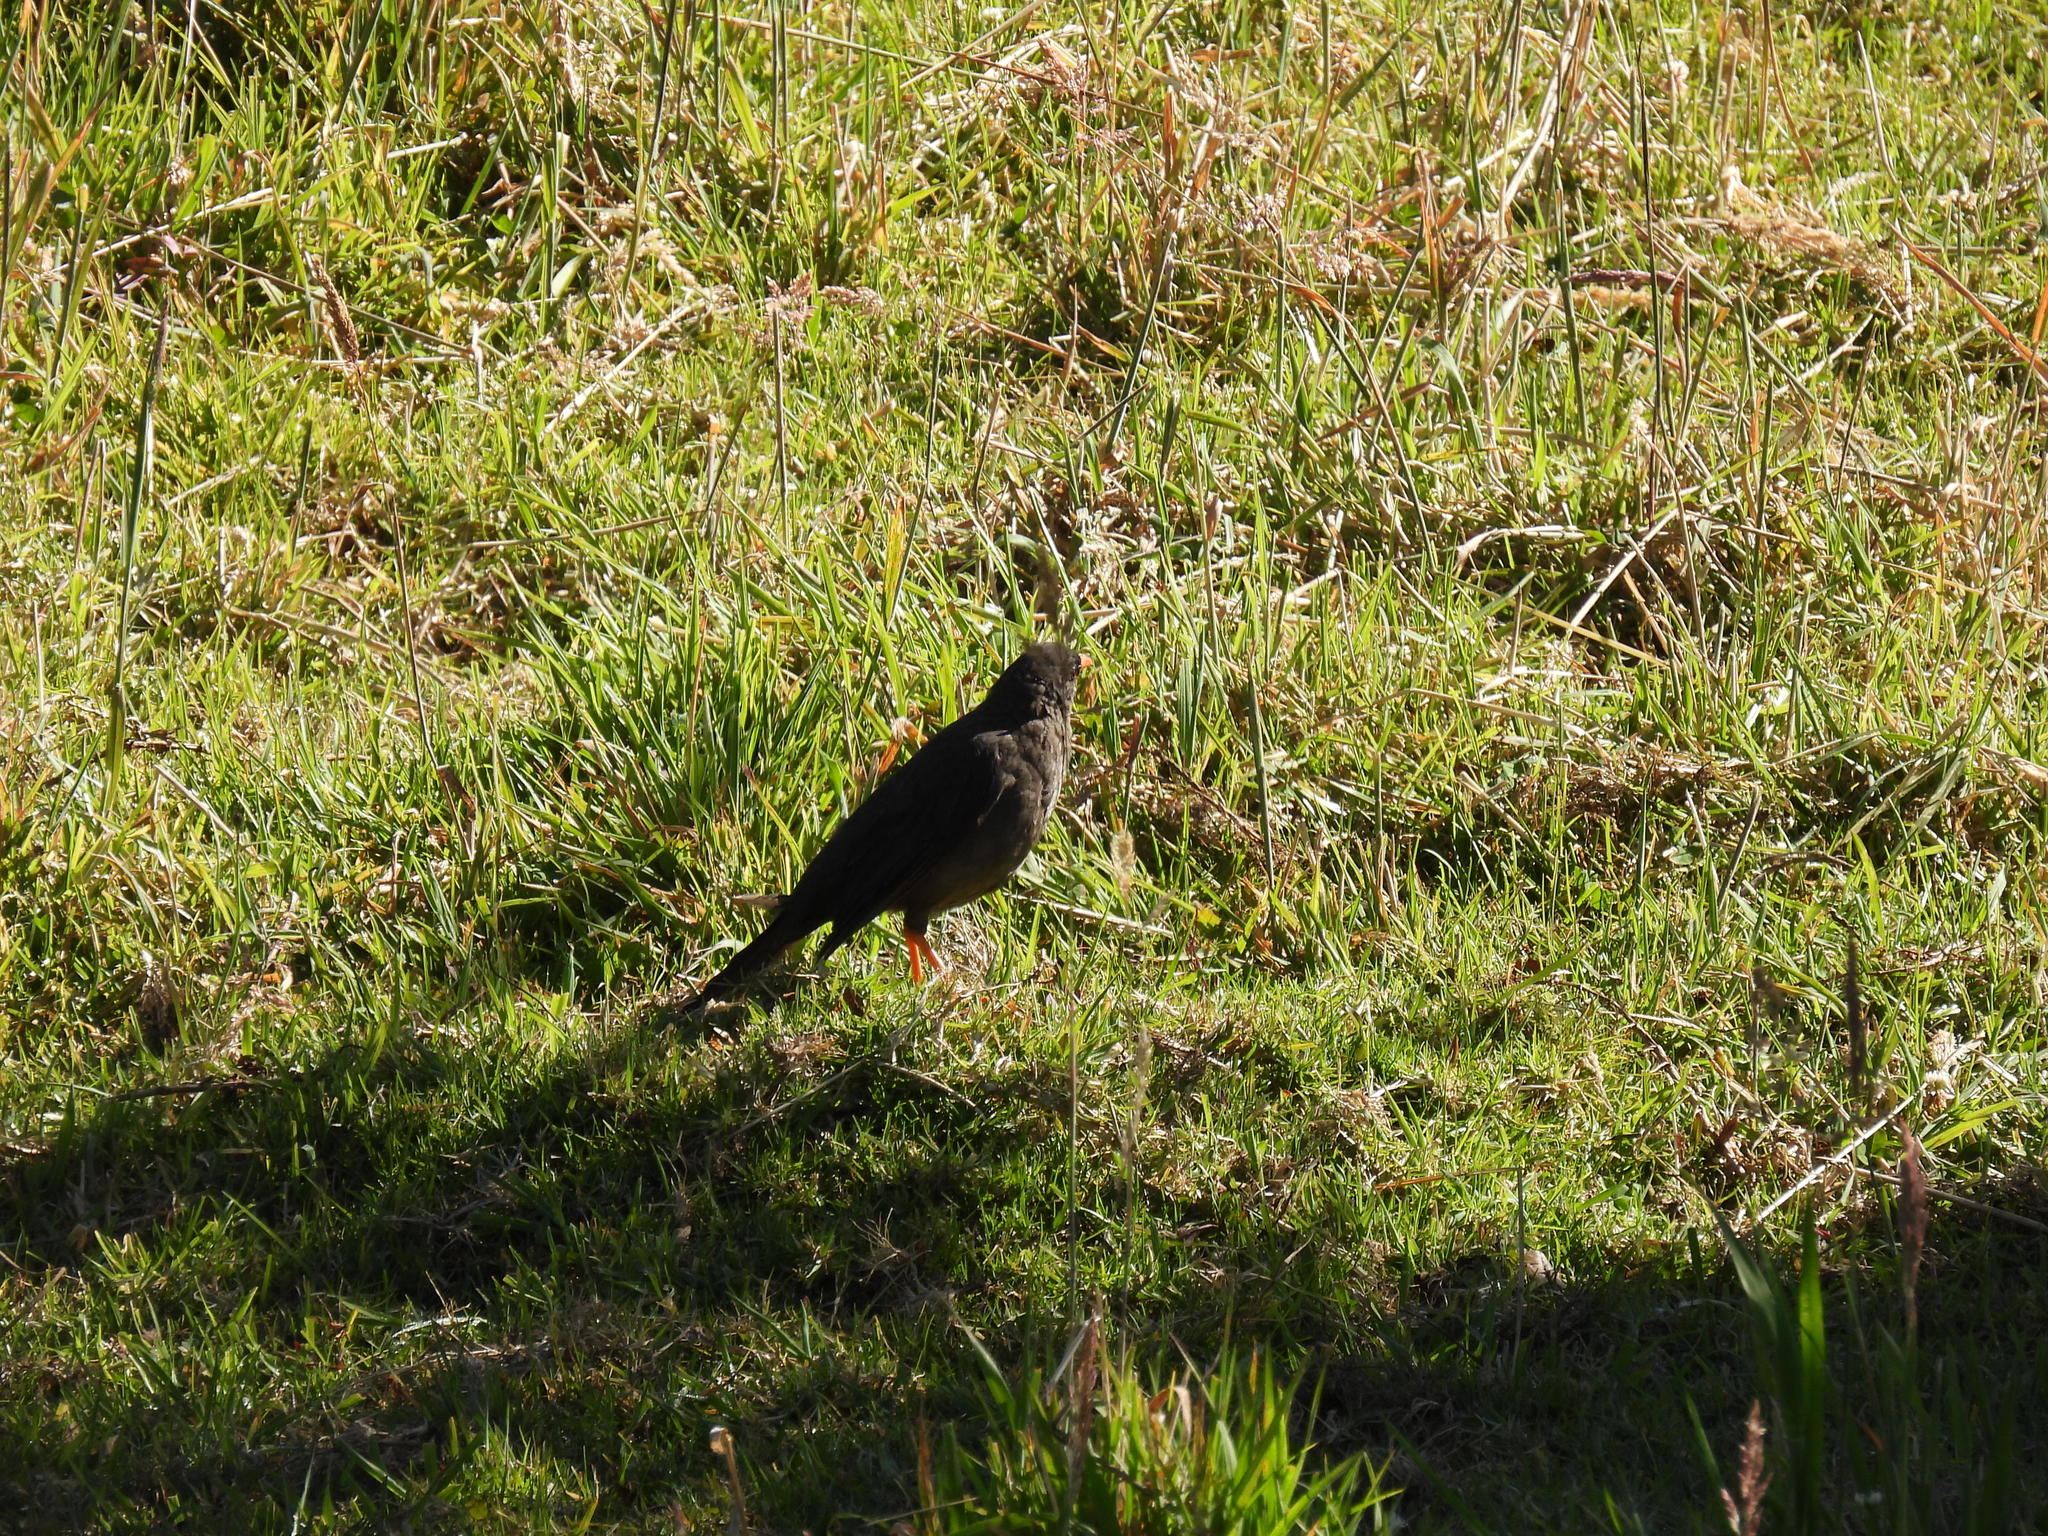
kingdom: Animalia
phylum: Chordata
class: Aves
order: Passeriformes
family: Turdidae
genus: Turdus
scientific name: Turdus fuscater
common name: Great thrush
